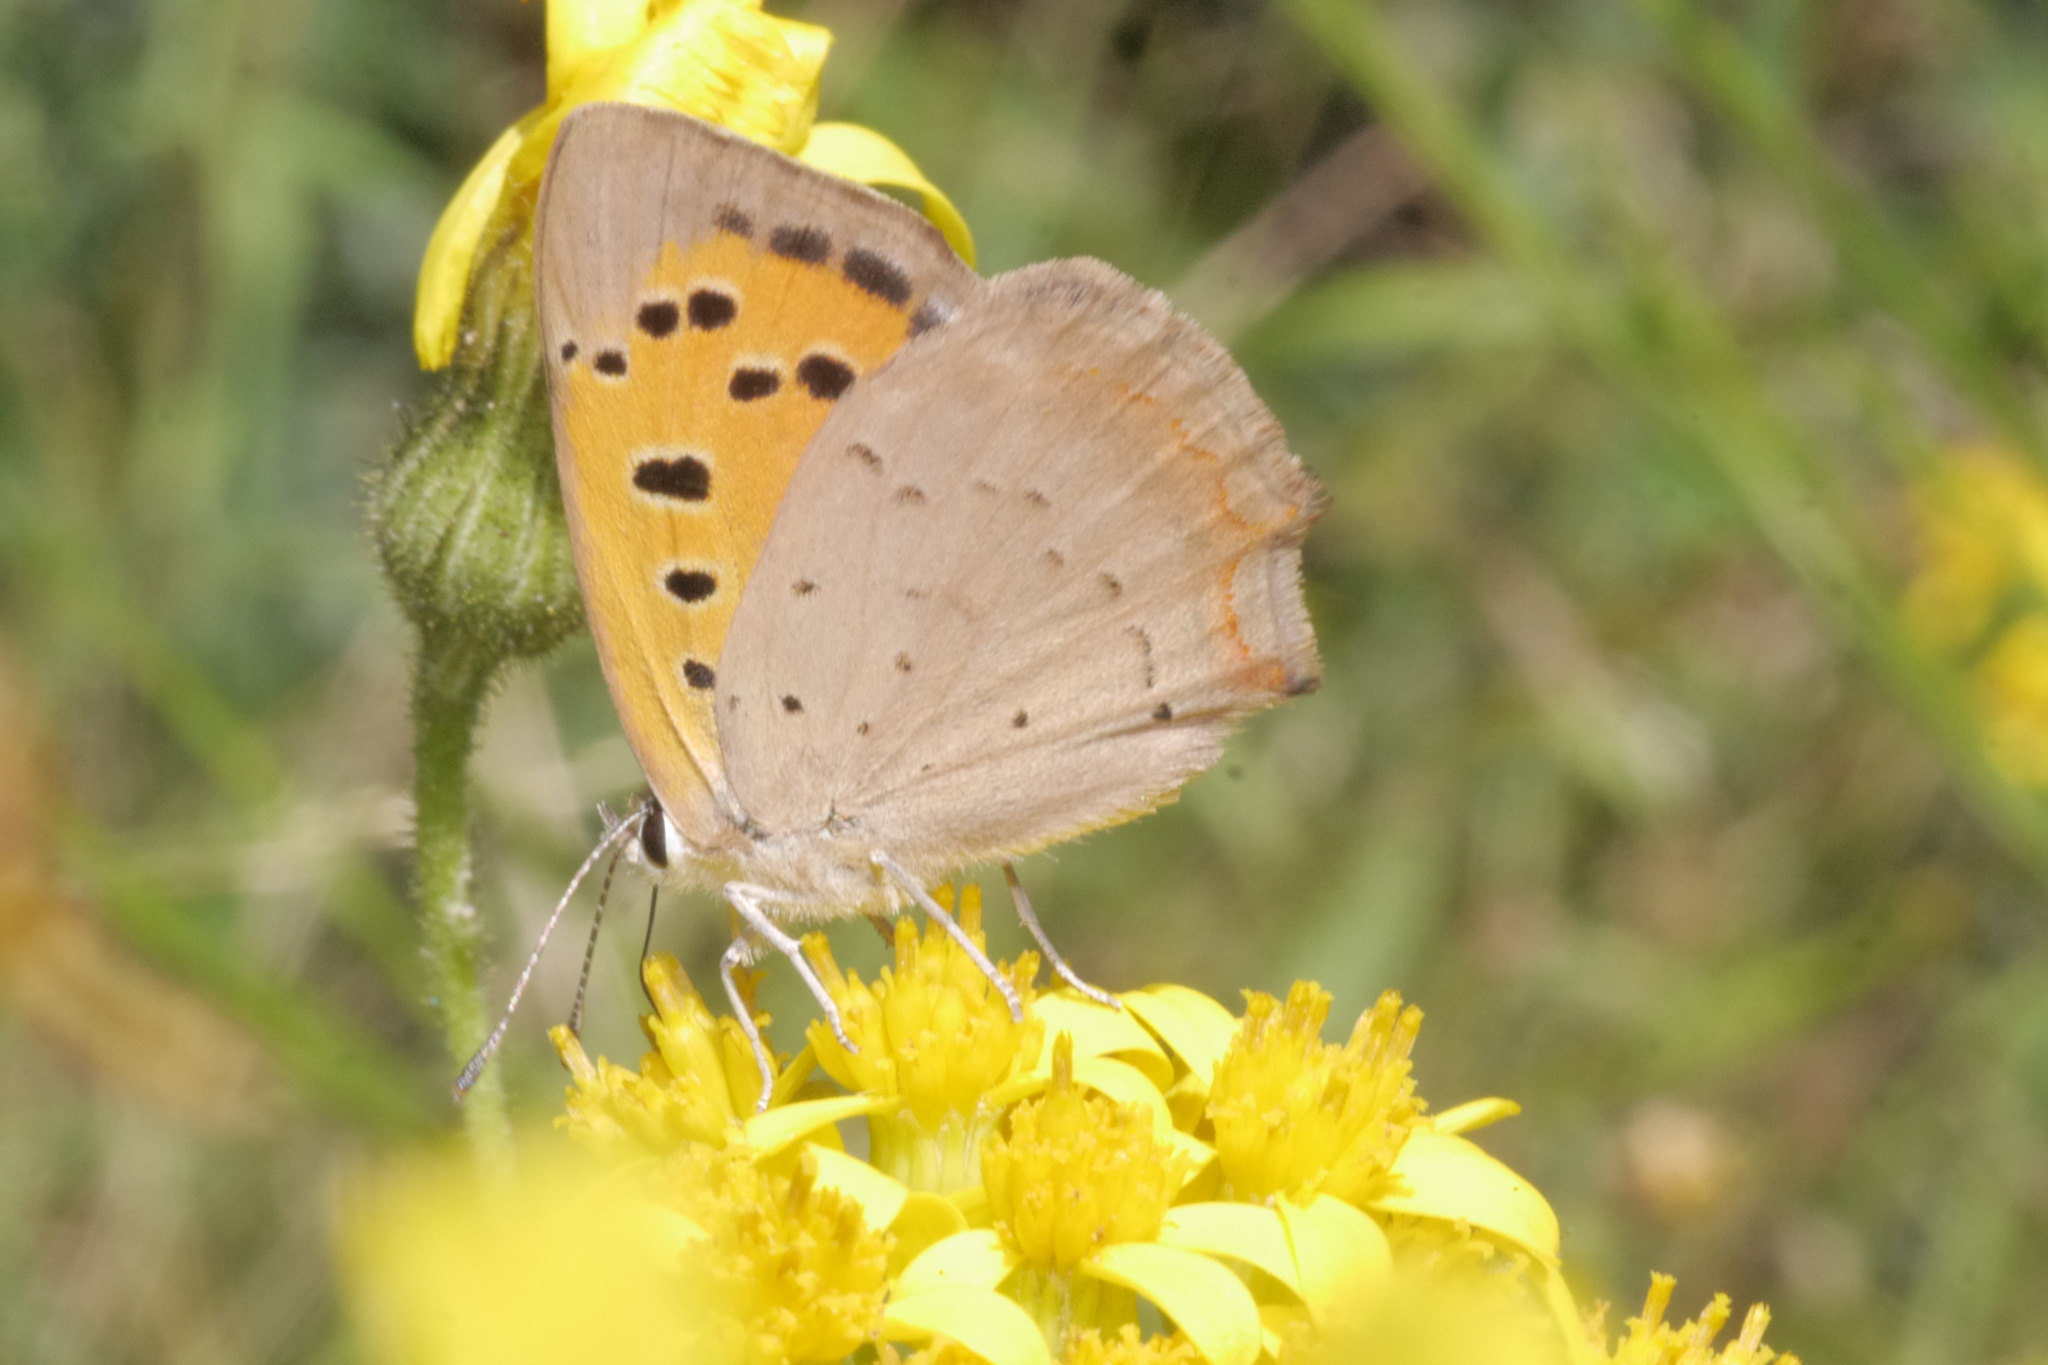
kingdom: Animalia
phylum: Arthropoda
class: Insecta
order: Lepidoptera
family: Lycaenidae
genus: Lycaena
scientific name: Lycaena phlaeas
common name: Small copper
